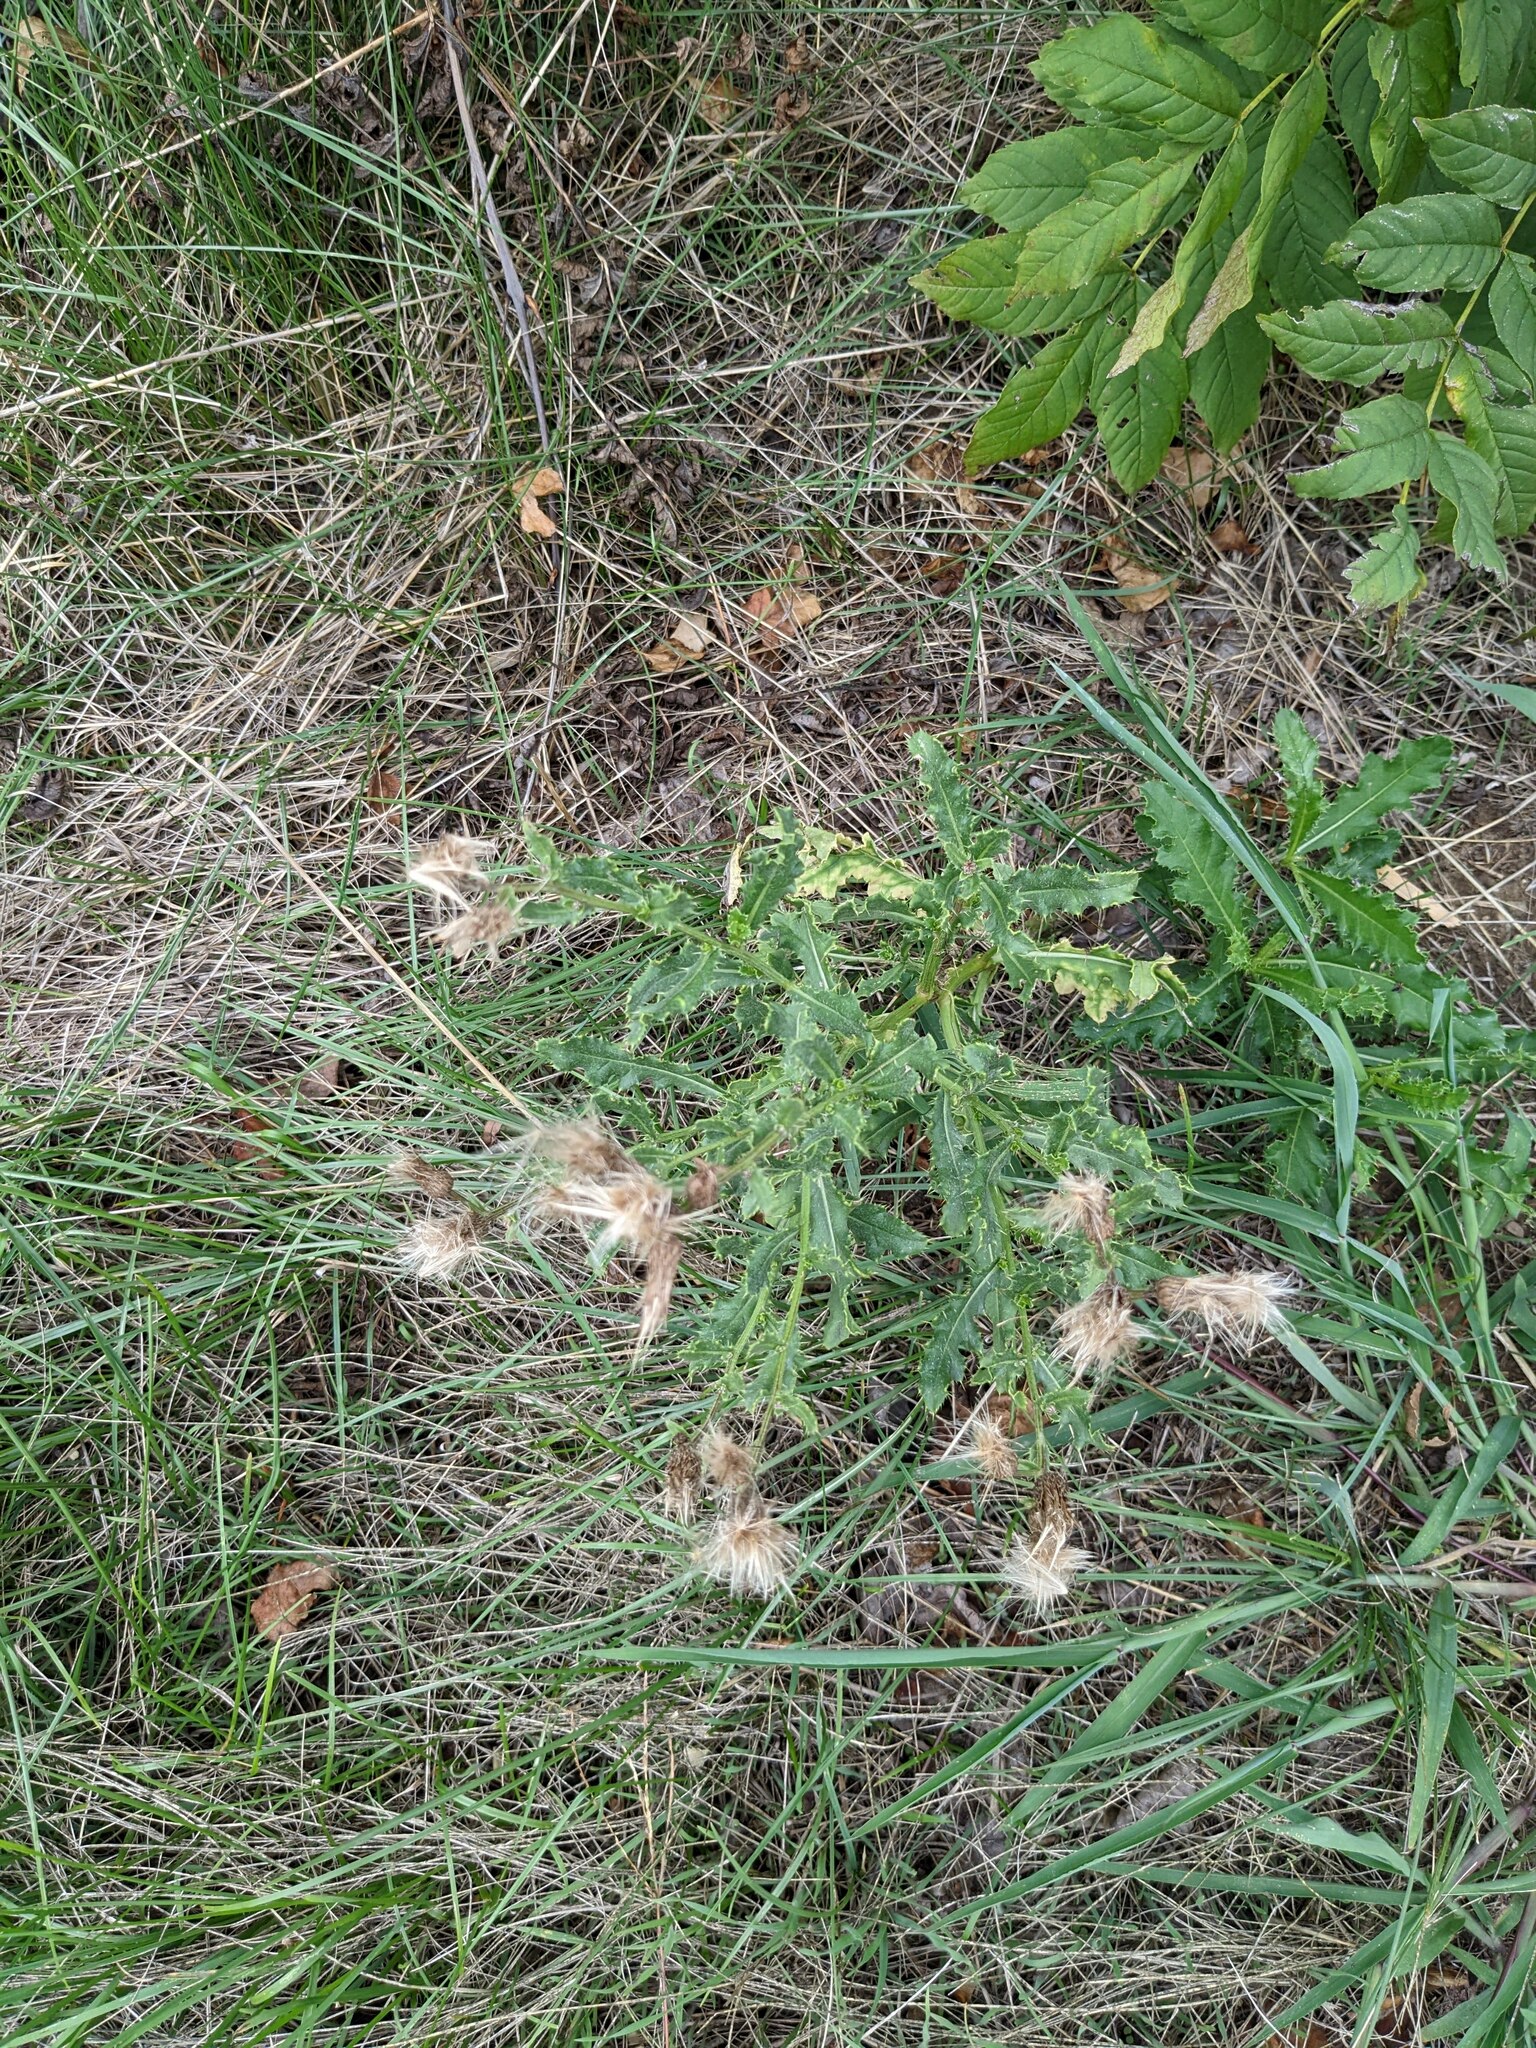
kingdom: Plantae
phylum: Tracheophyta
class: Magnoliopsida
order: Asterales
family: Asteraceae
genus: Cirsium
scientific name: Cirsium arvense
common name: Creeping thistle
